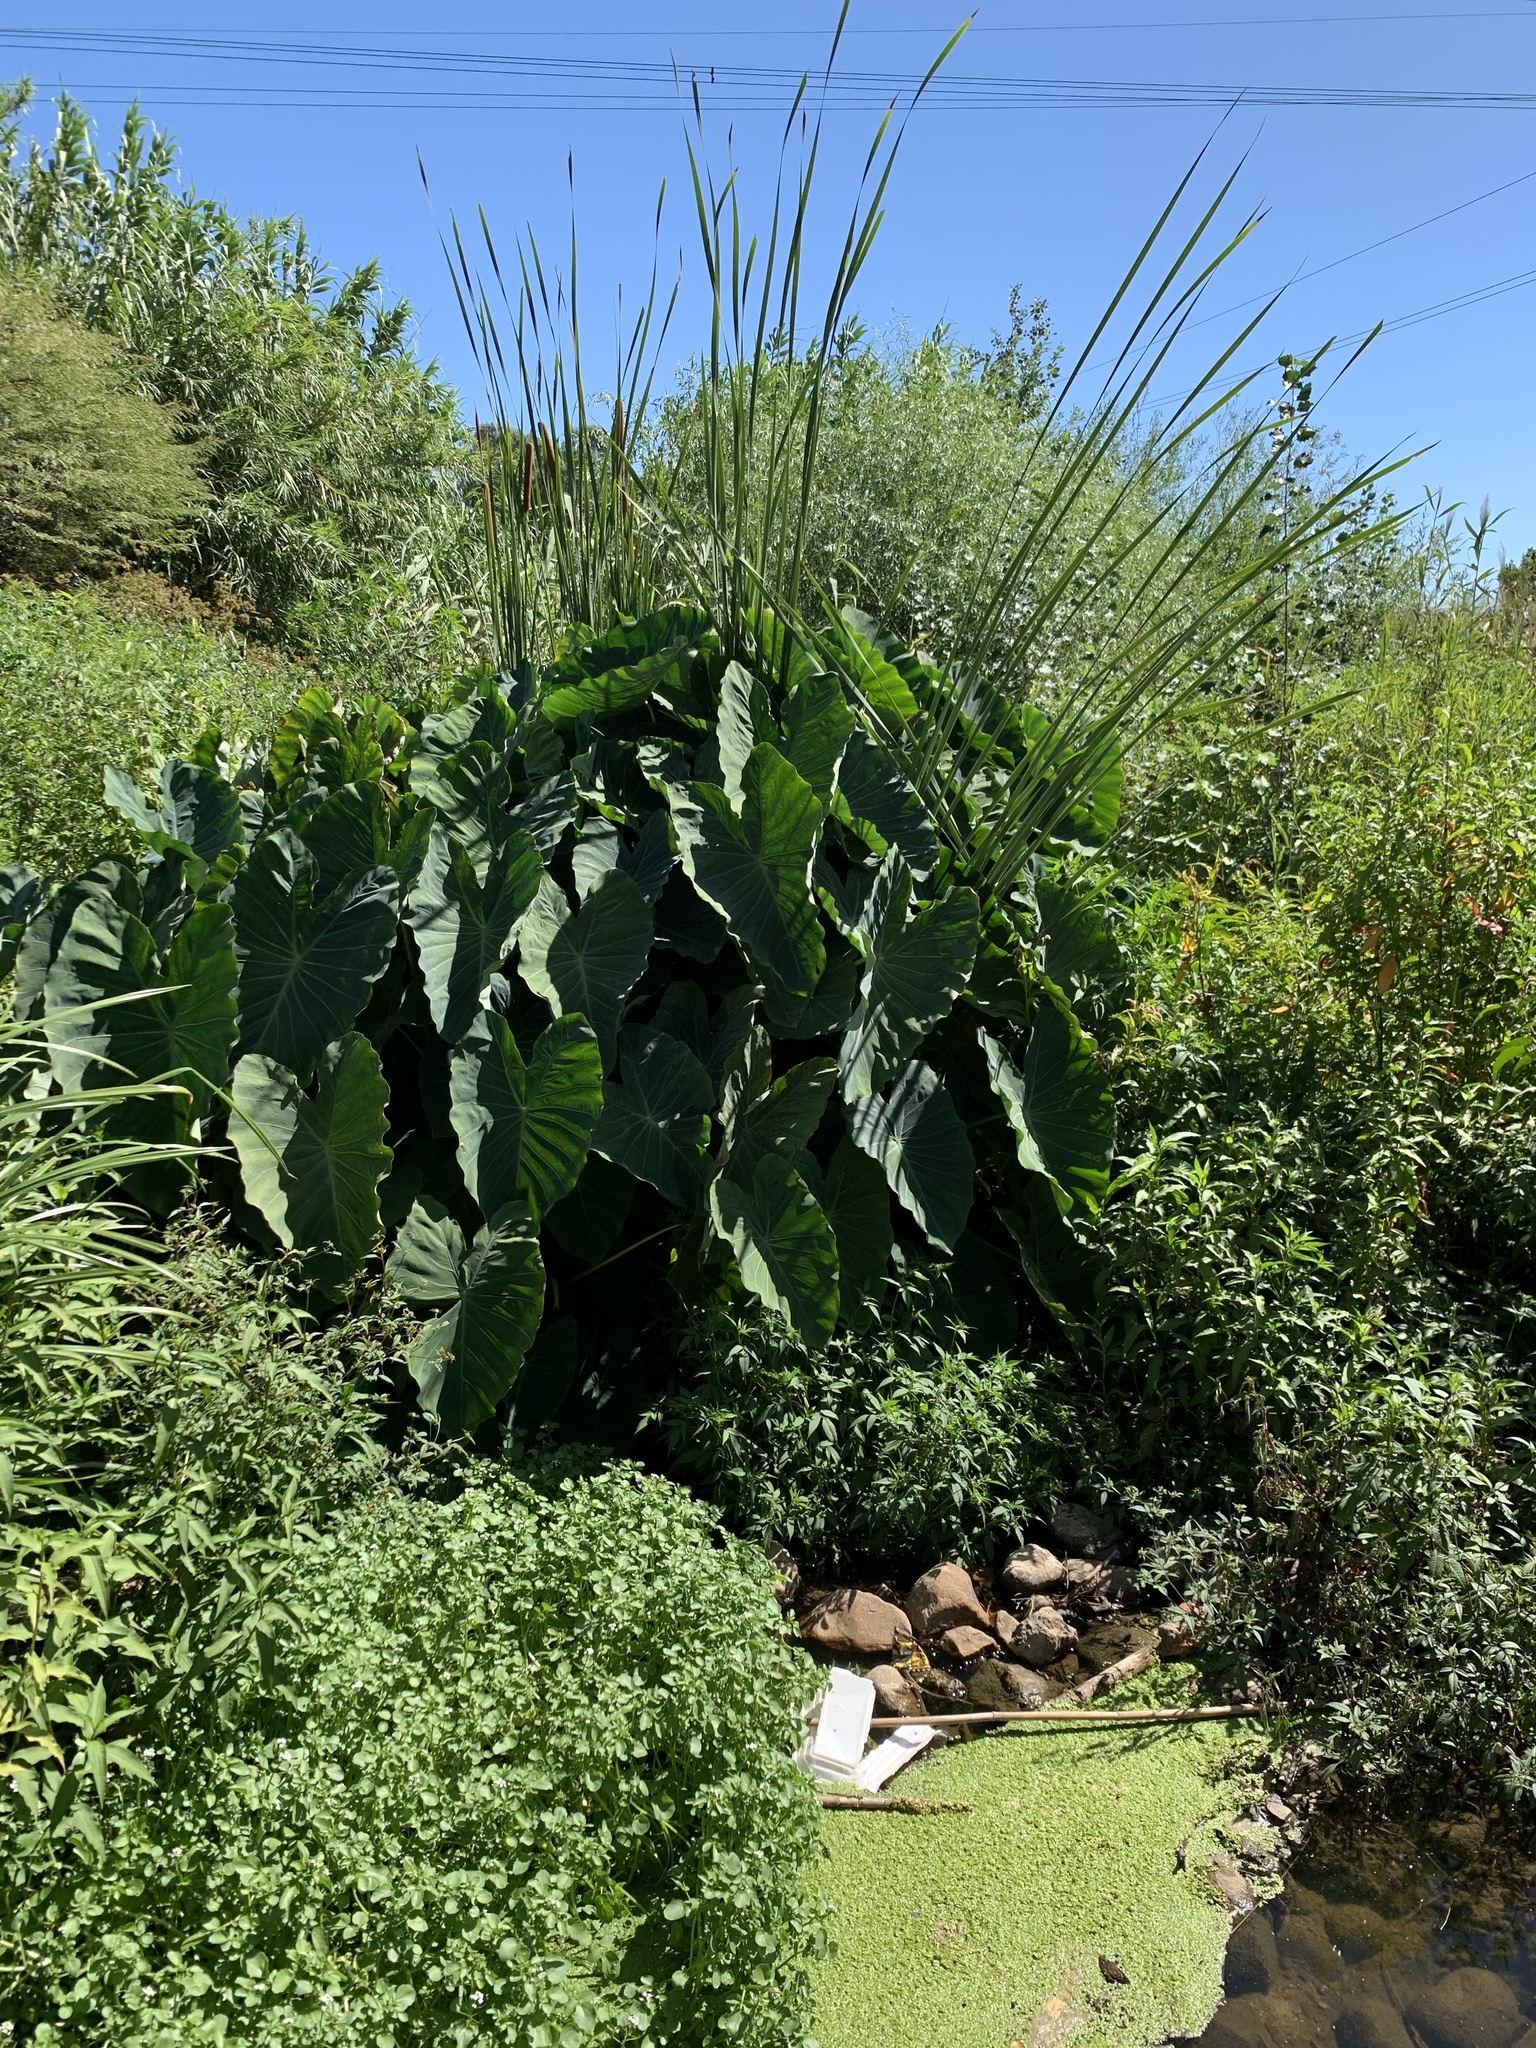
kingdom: Plantae
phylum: Tracheophyta
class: Liliopsida
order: Alismatales
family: Araceae
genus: Colocasia
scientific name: Colocasia esculenta
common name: Taro
